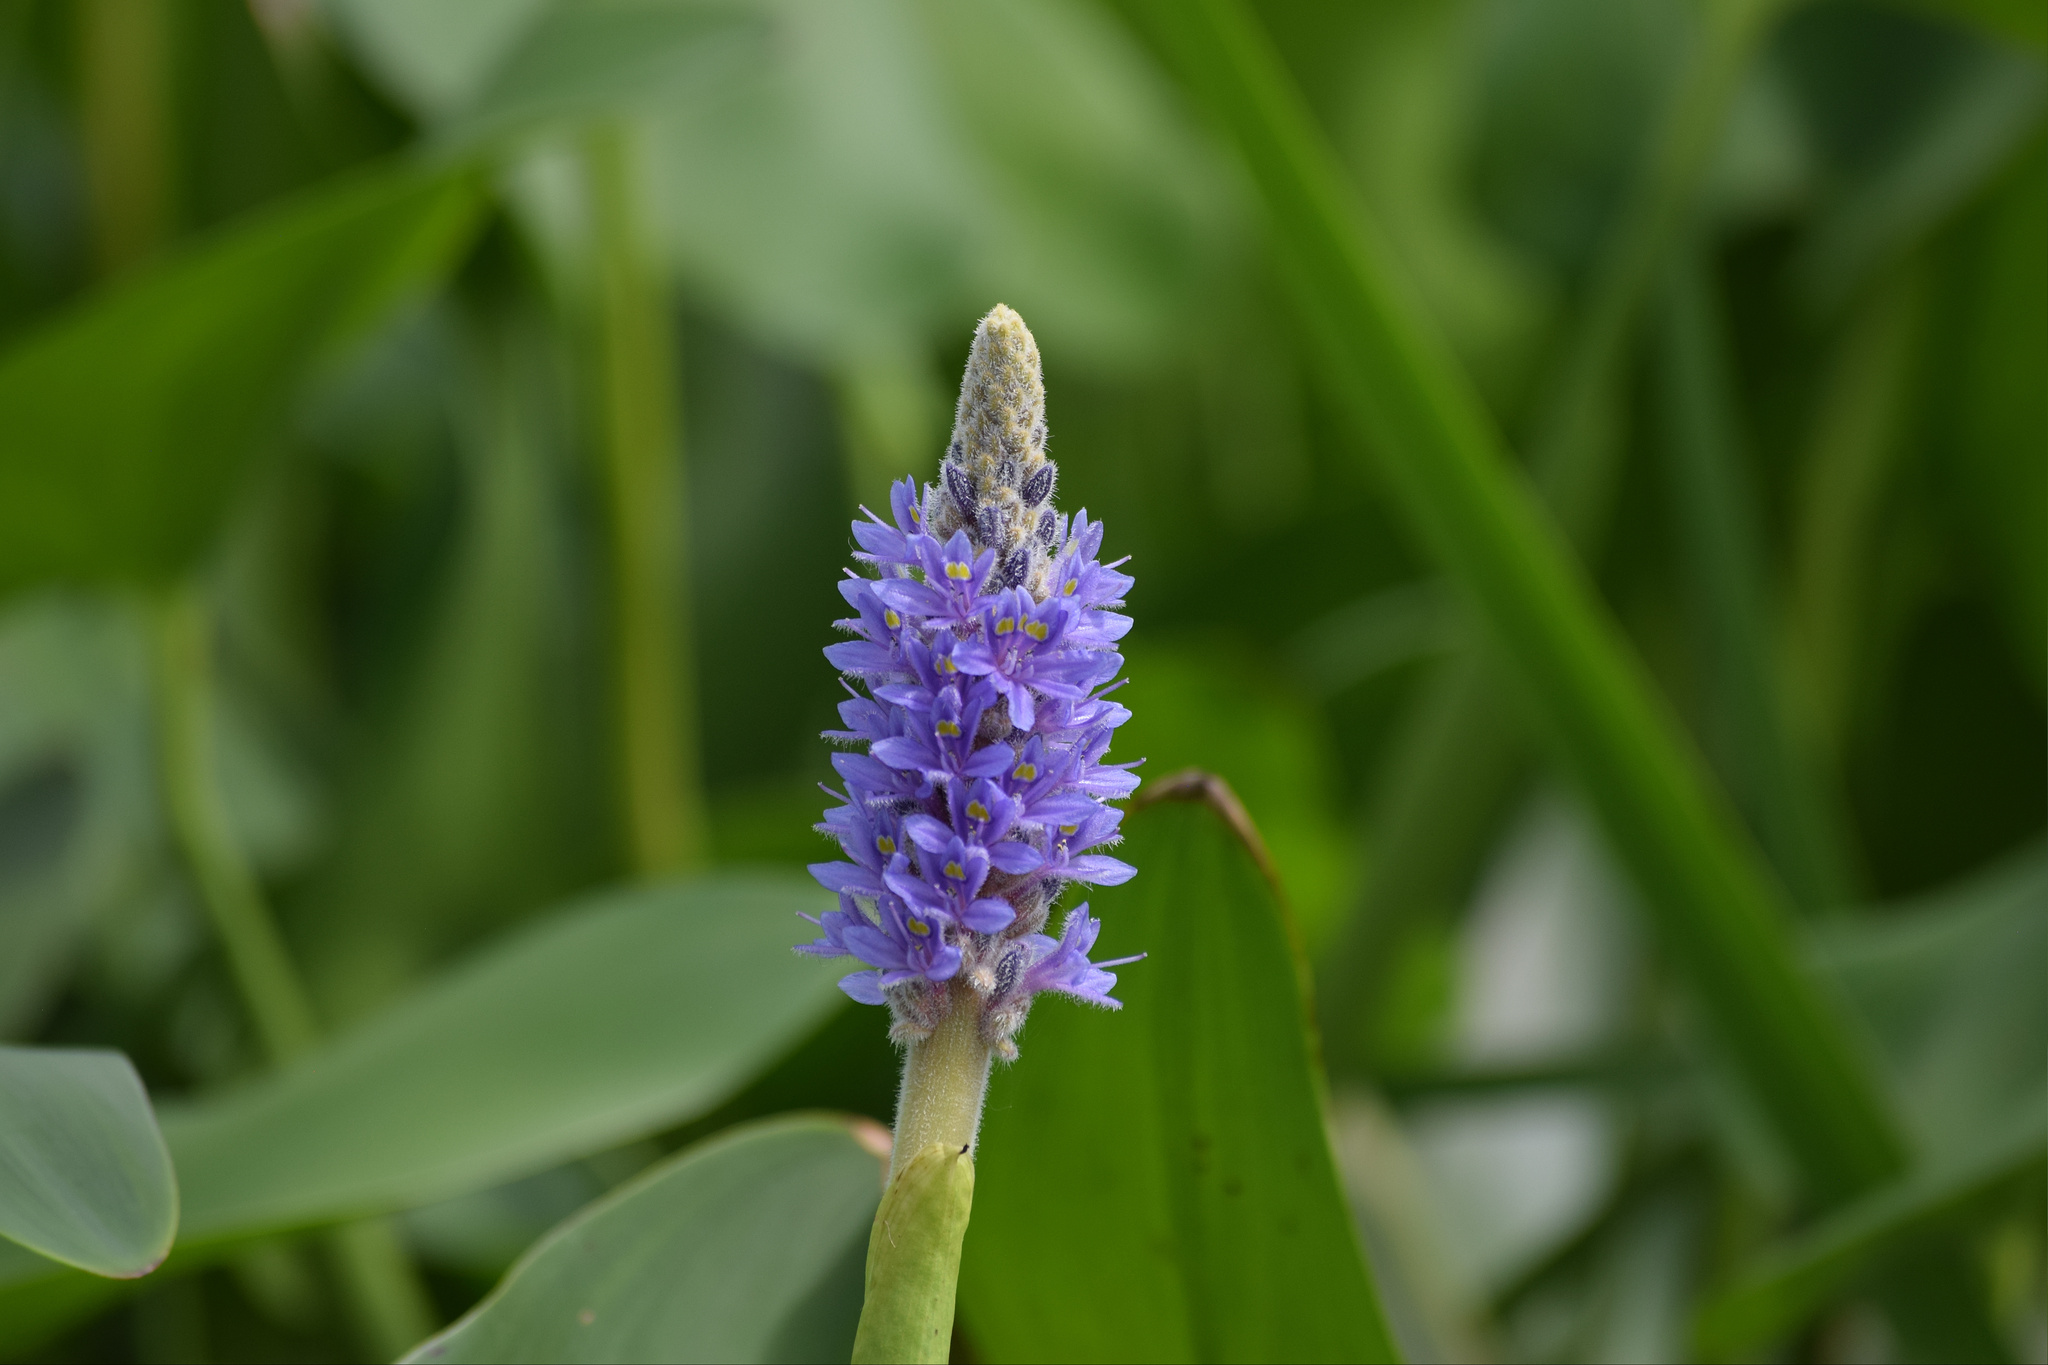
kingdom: Plantae
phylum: Tracheophyta
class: Liliopsida
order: Commelinales
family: Pontederiaceae
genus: Pontederia
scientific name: Pontederia cordata
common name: Pickerelweed
